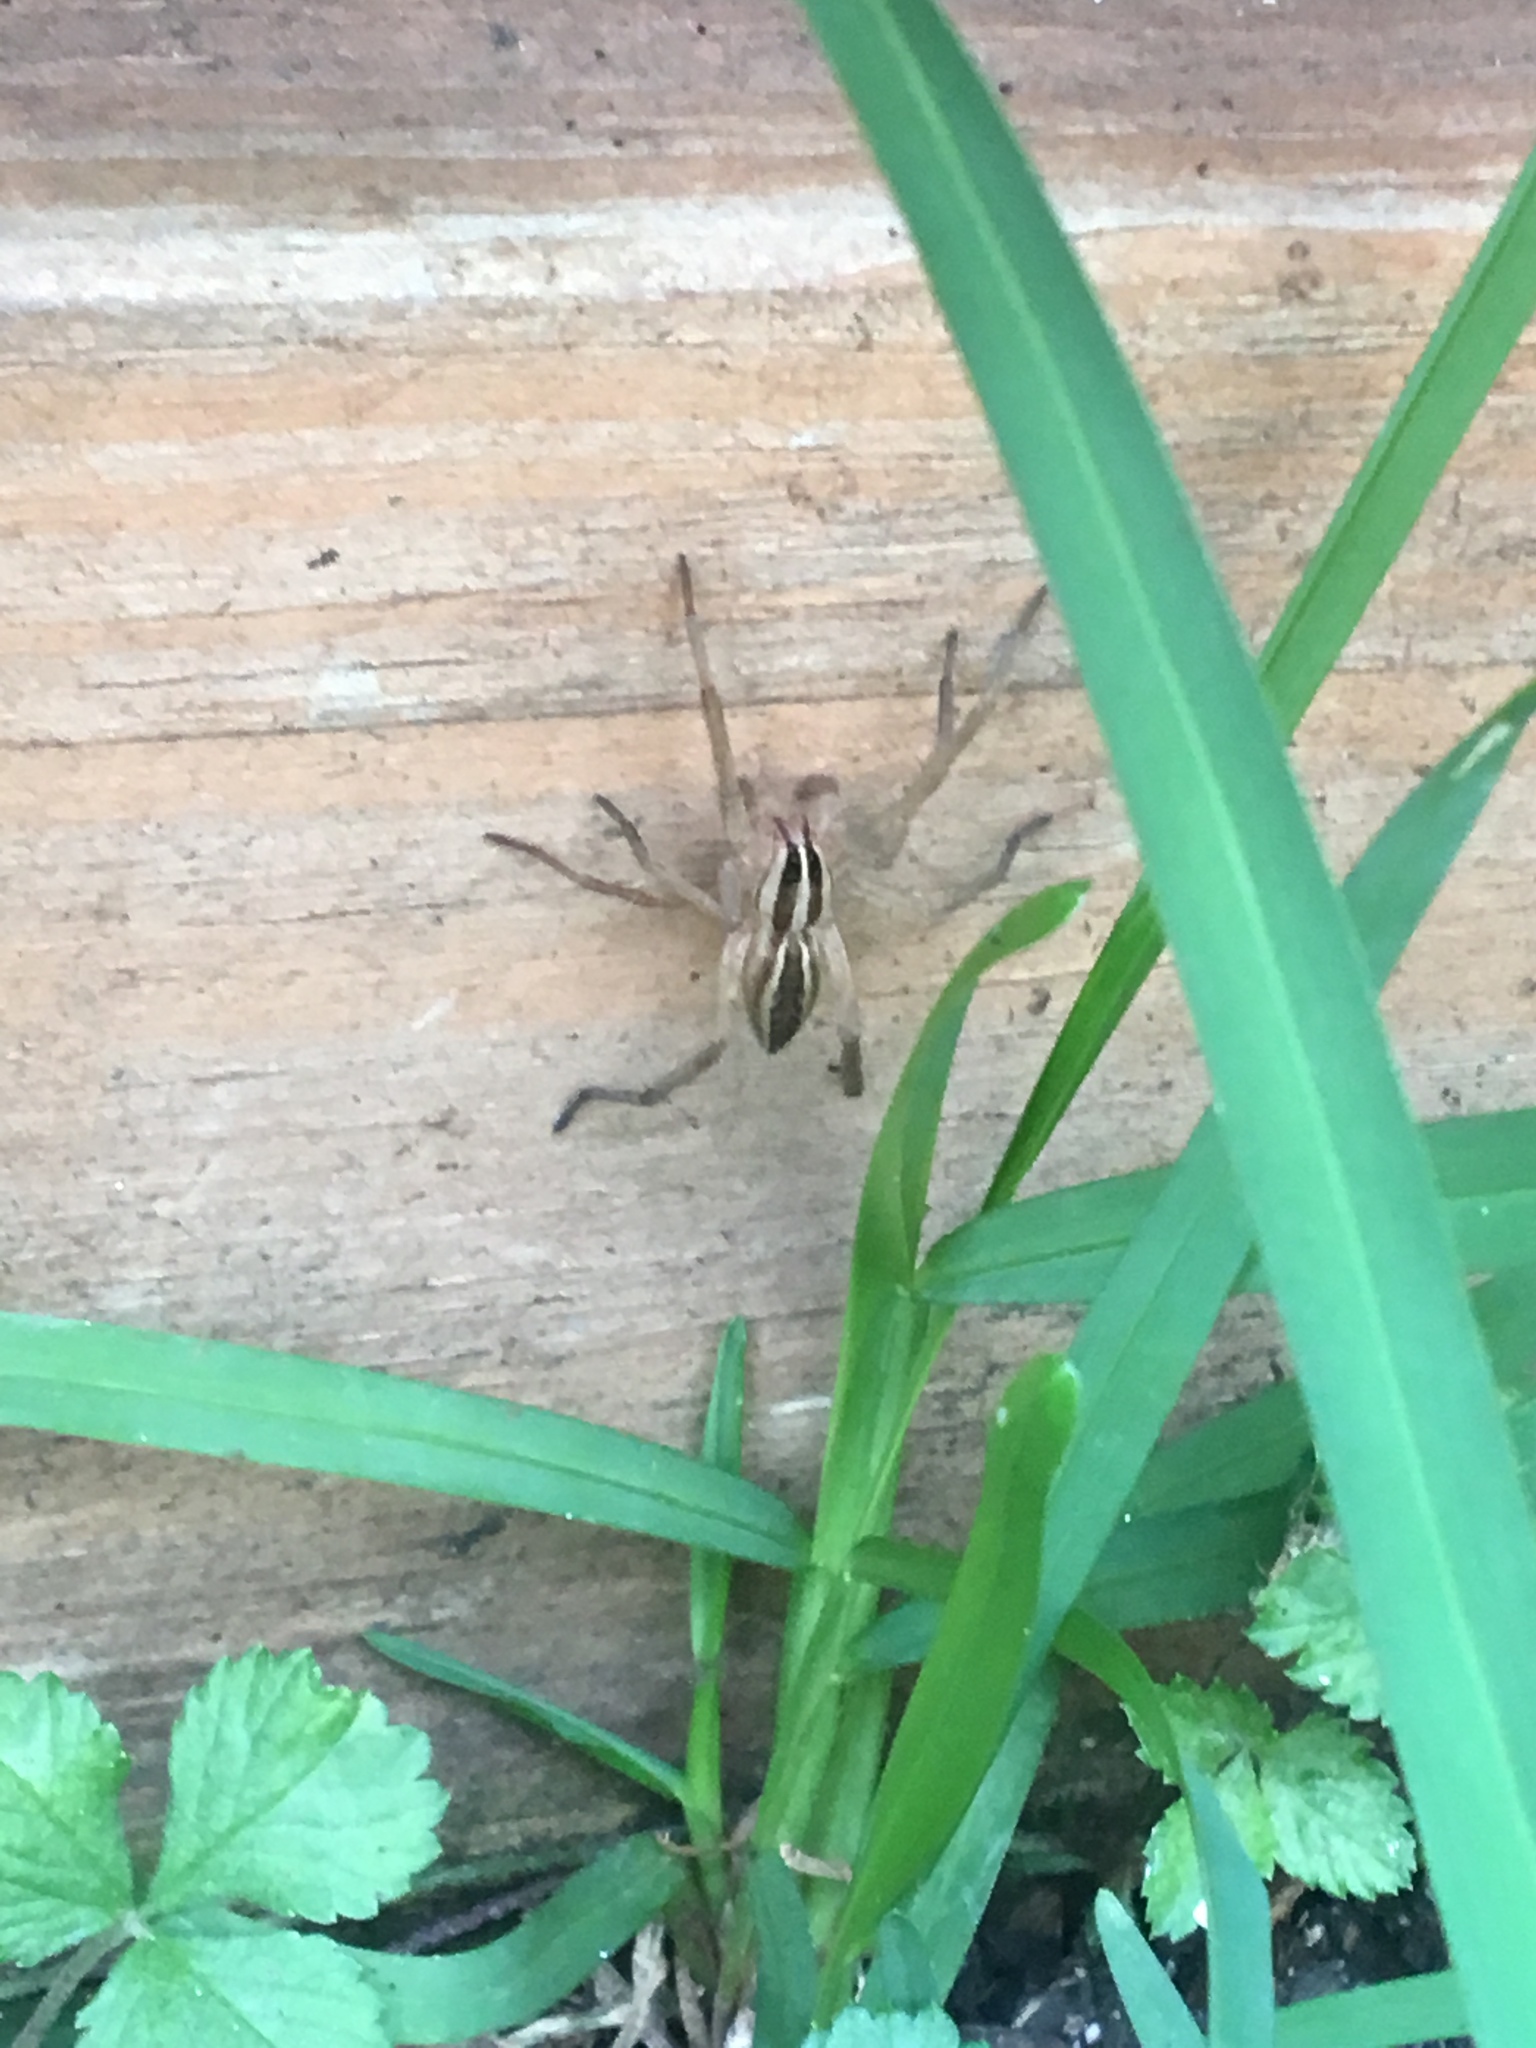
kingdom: Animalia
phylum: Arthropoda
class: Arachnida
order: Araneae
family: Lycosidae
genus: Rabidosa
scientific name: Rabidosa rabida
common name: Rabid wolf spider
